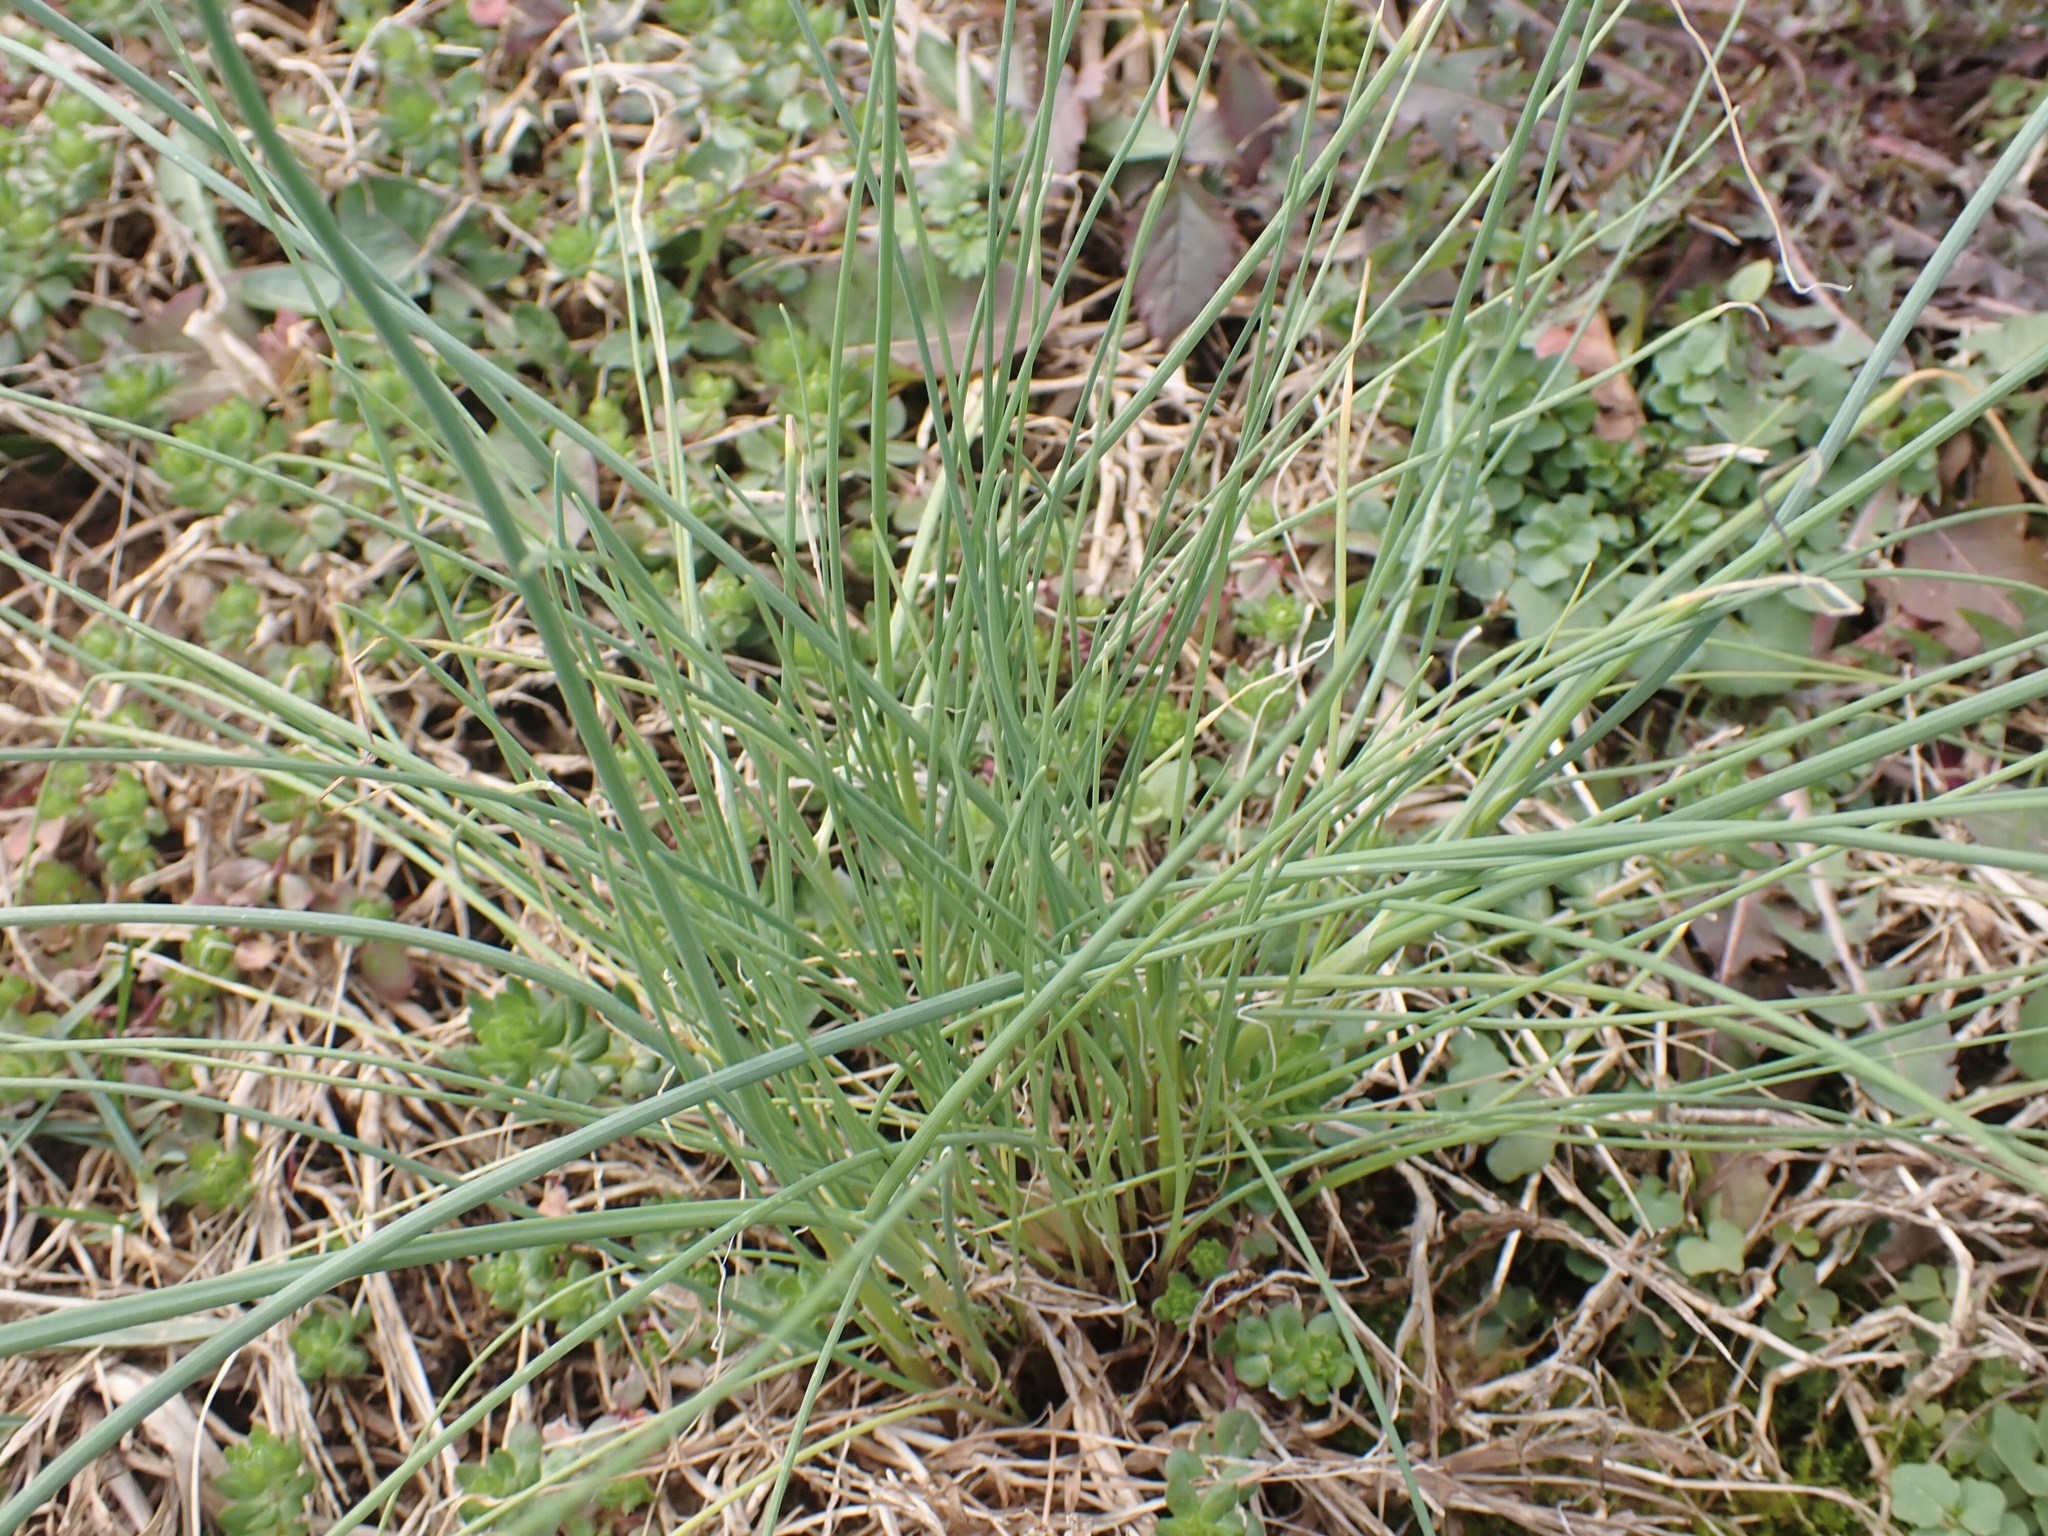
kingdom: Plantae
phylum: Tracheophyta
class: Liliopsida
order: Asparagales
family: Amaryllidaceae
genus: Allium
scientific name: Allium vineale
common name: Crow garlic
